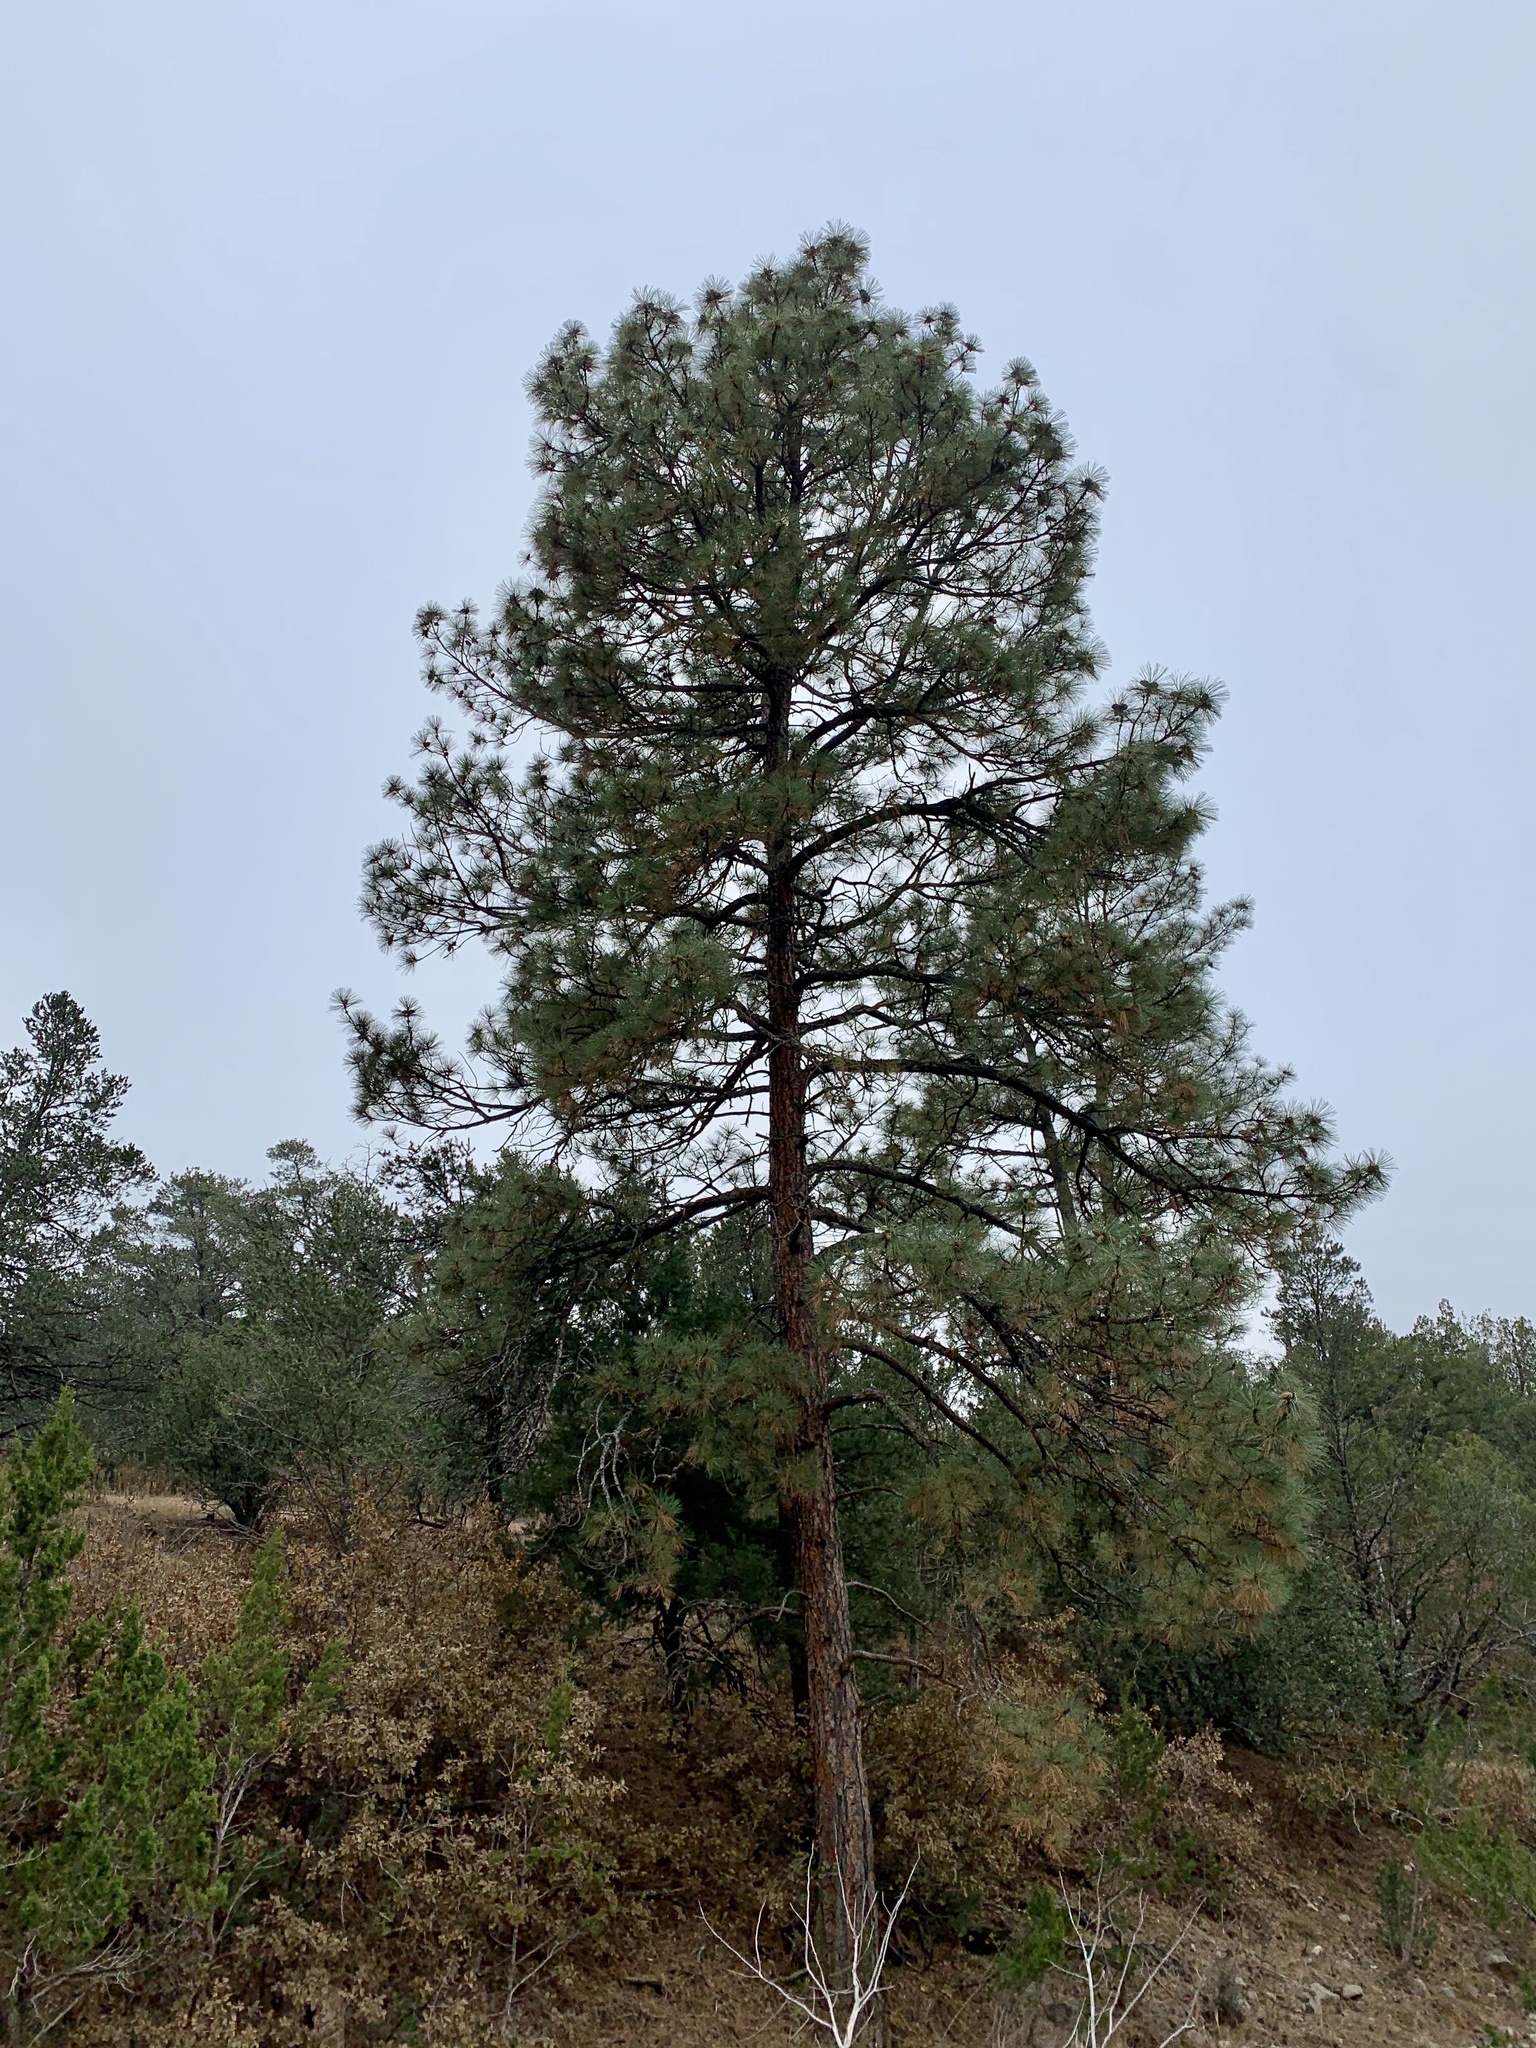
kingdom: Plantae
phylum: Tracheophyta
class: Pinopsida
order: Pinales
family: Pinaceae
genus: Pinus
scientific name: Pinus ponderosa
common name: Western yellow-pine
